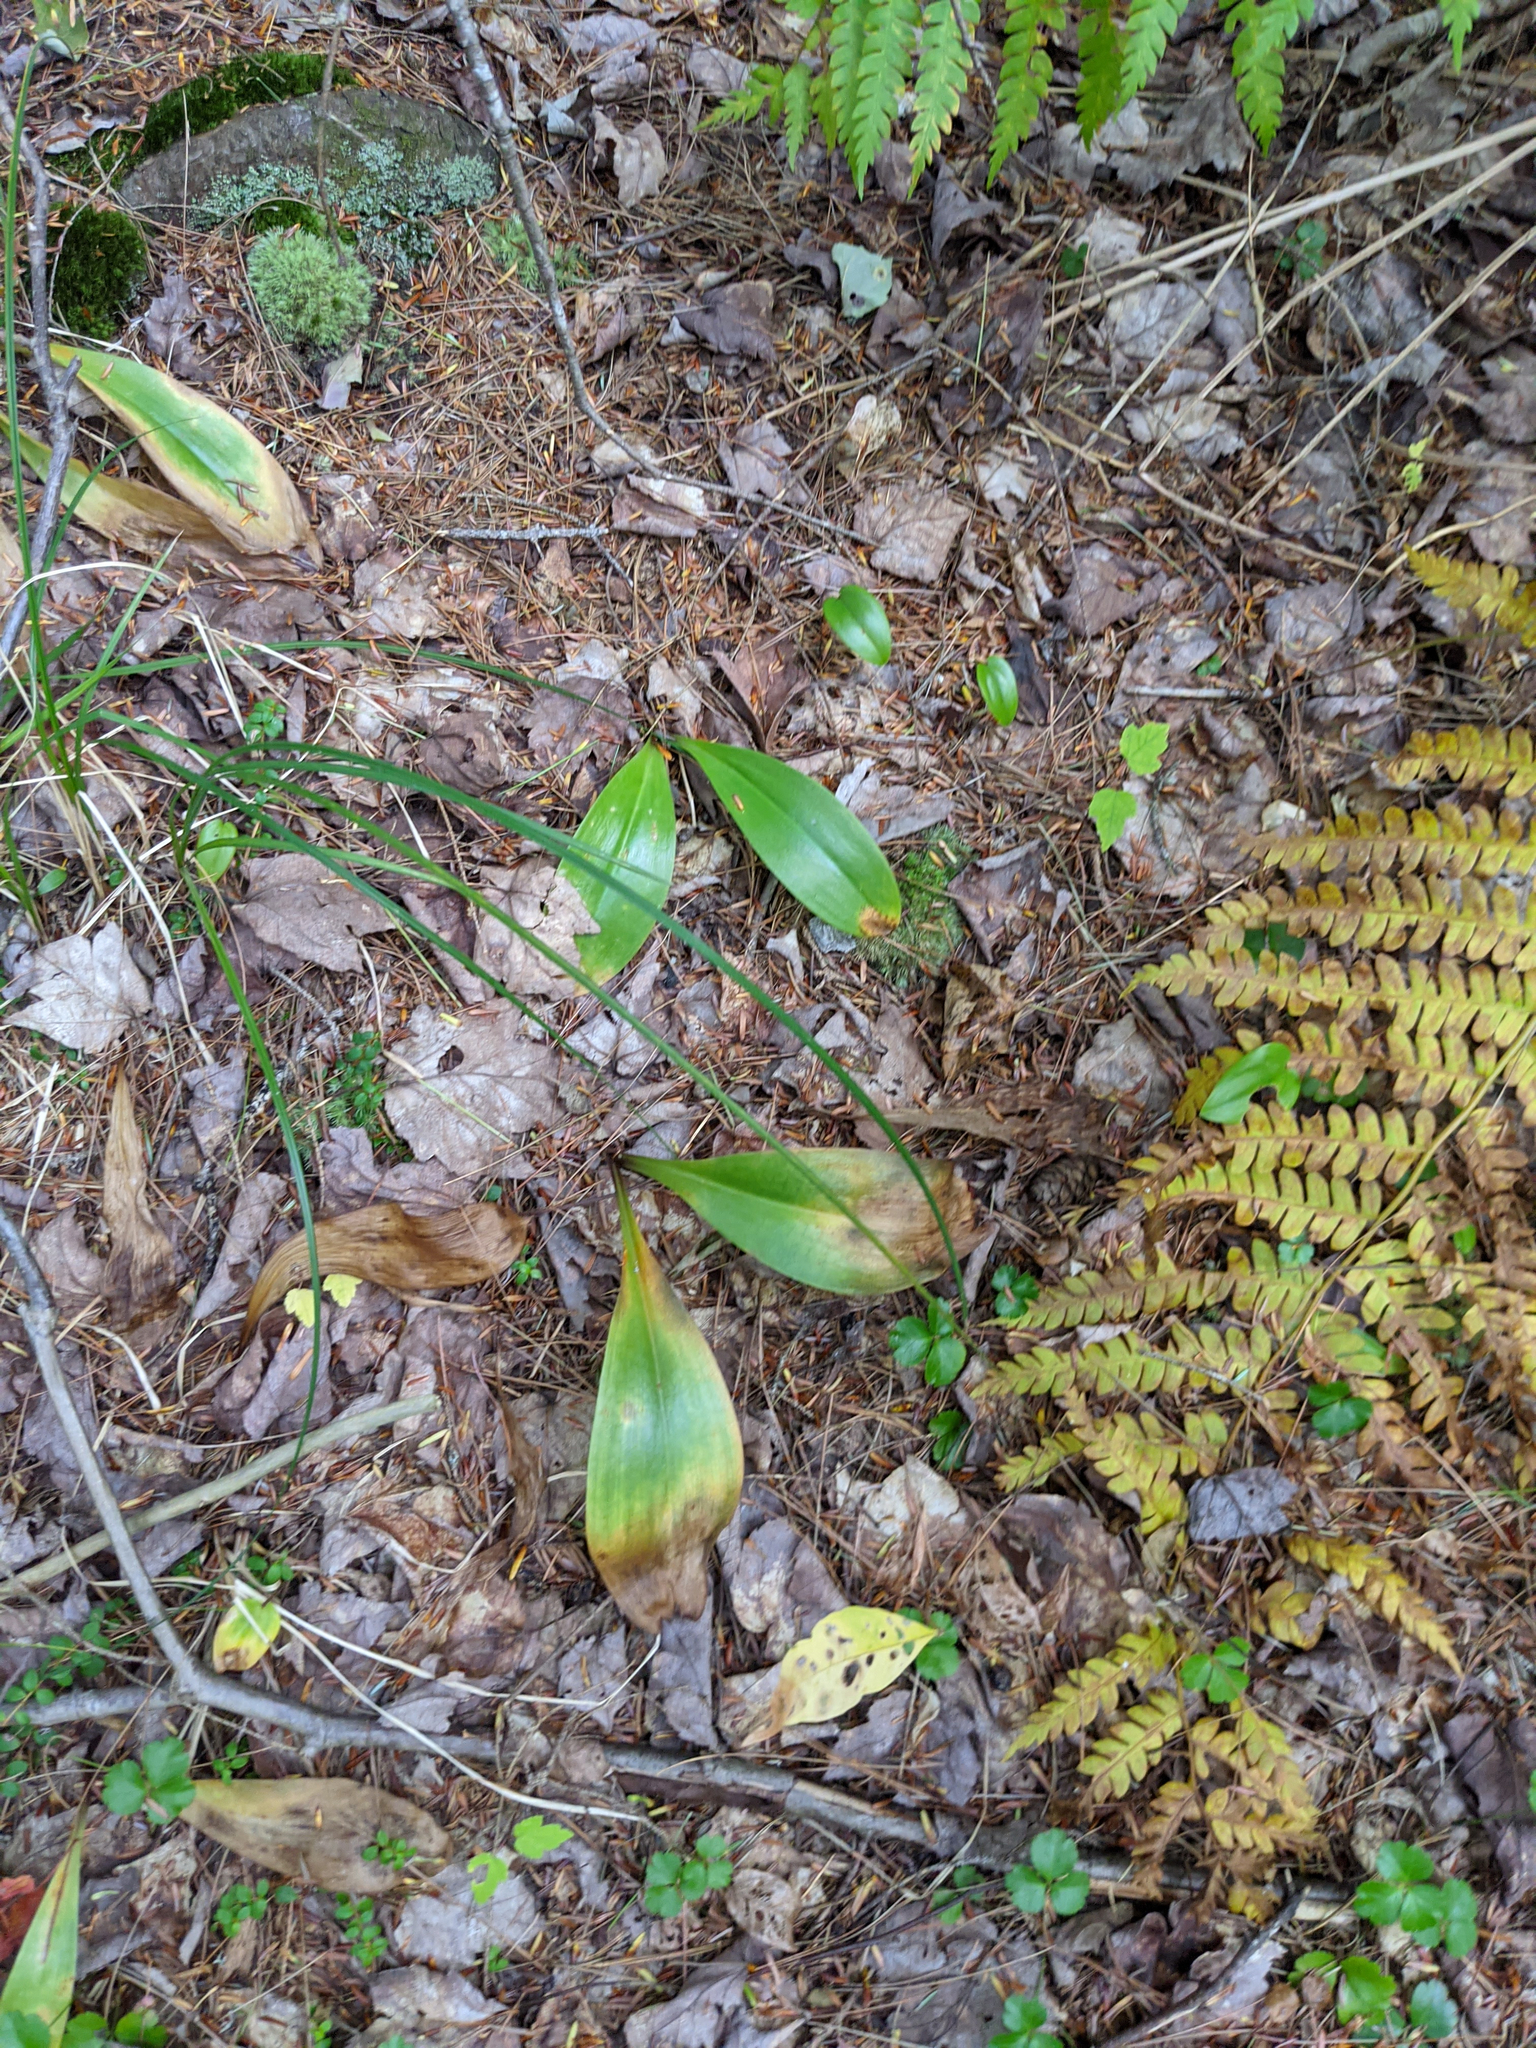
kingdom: Plantae
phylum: Tracheophyta
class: Liliopsida
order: Liliales
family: Liliaceae
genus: Clintonia
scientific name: Clintonia borealis
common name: Yellow clintonia
